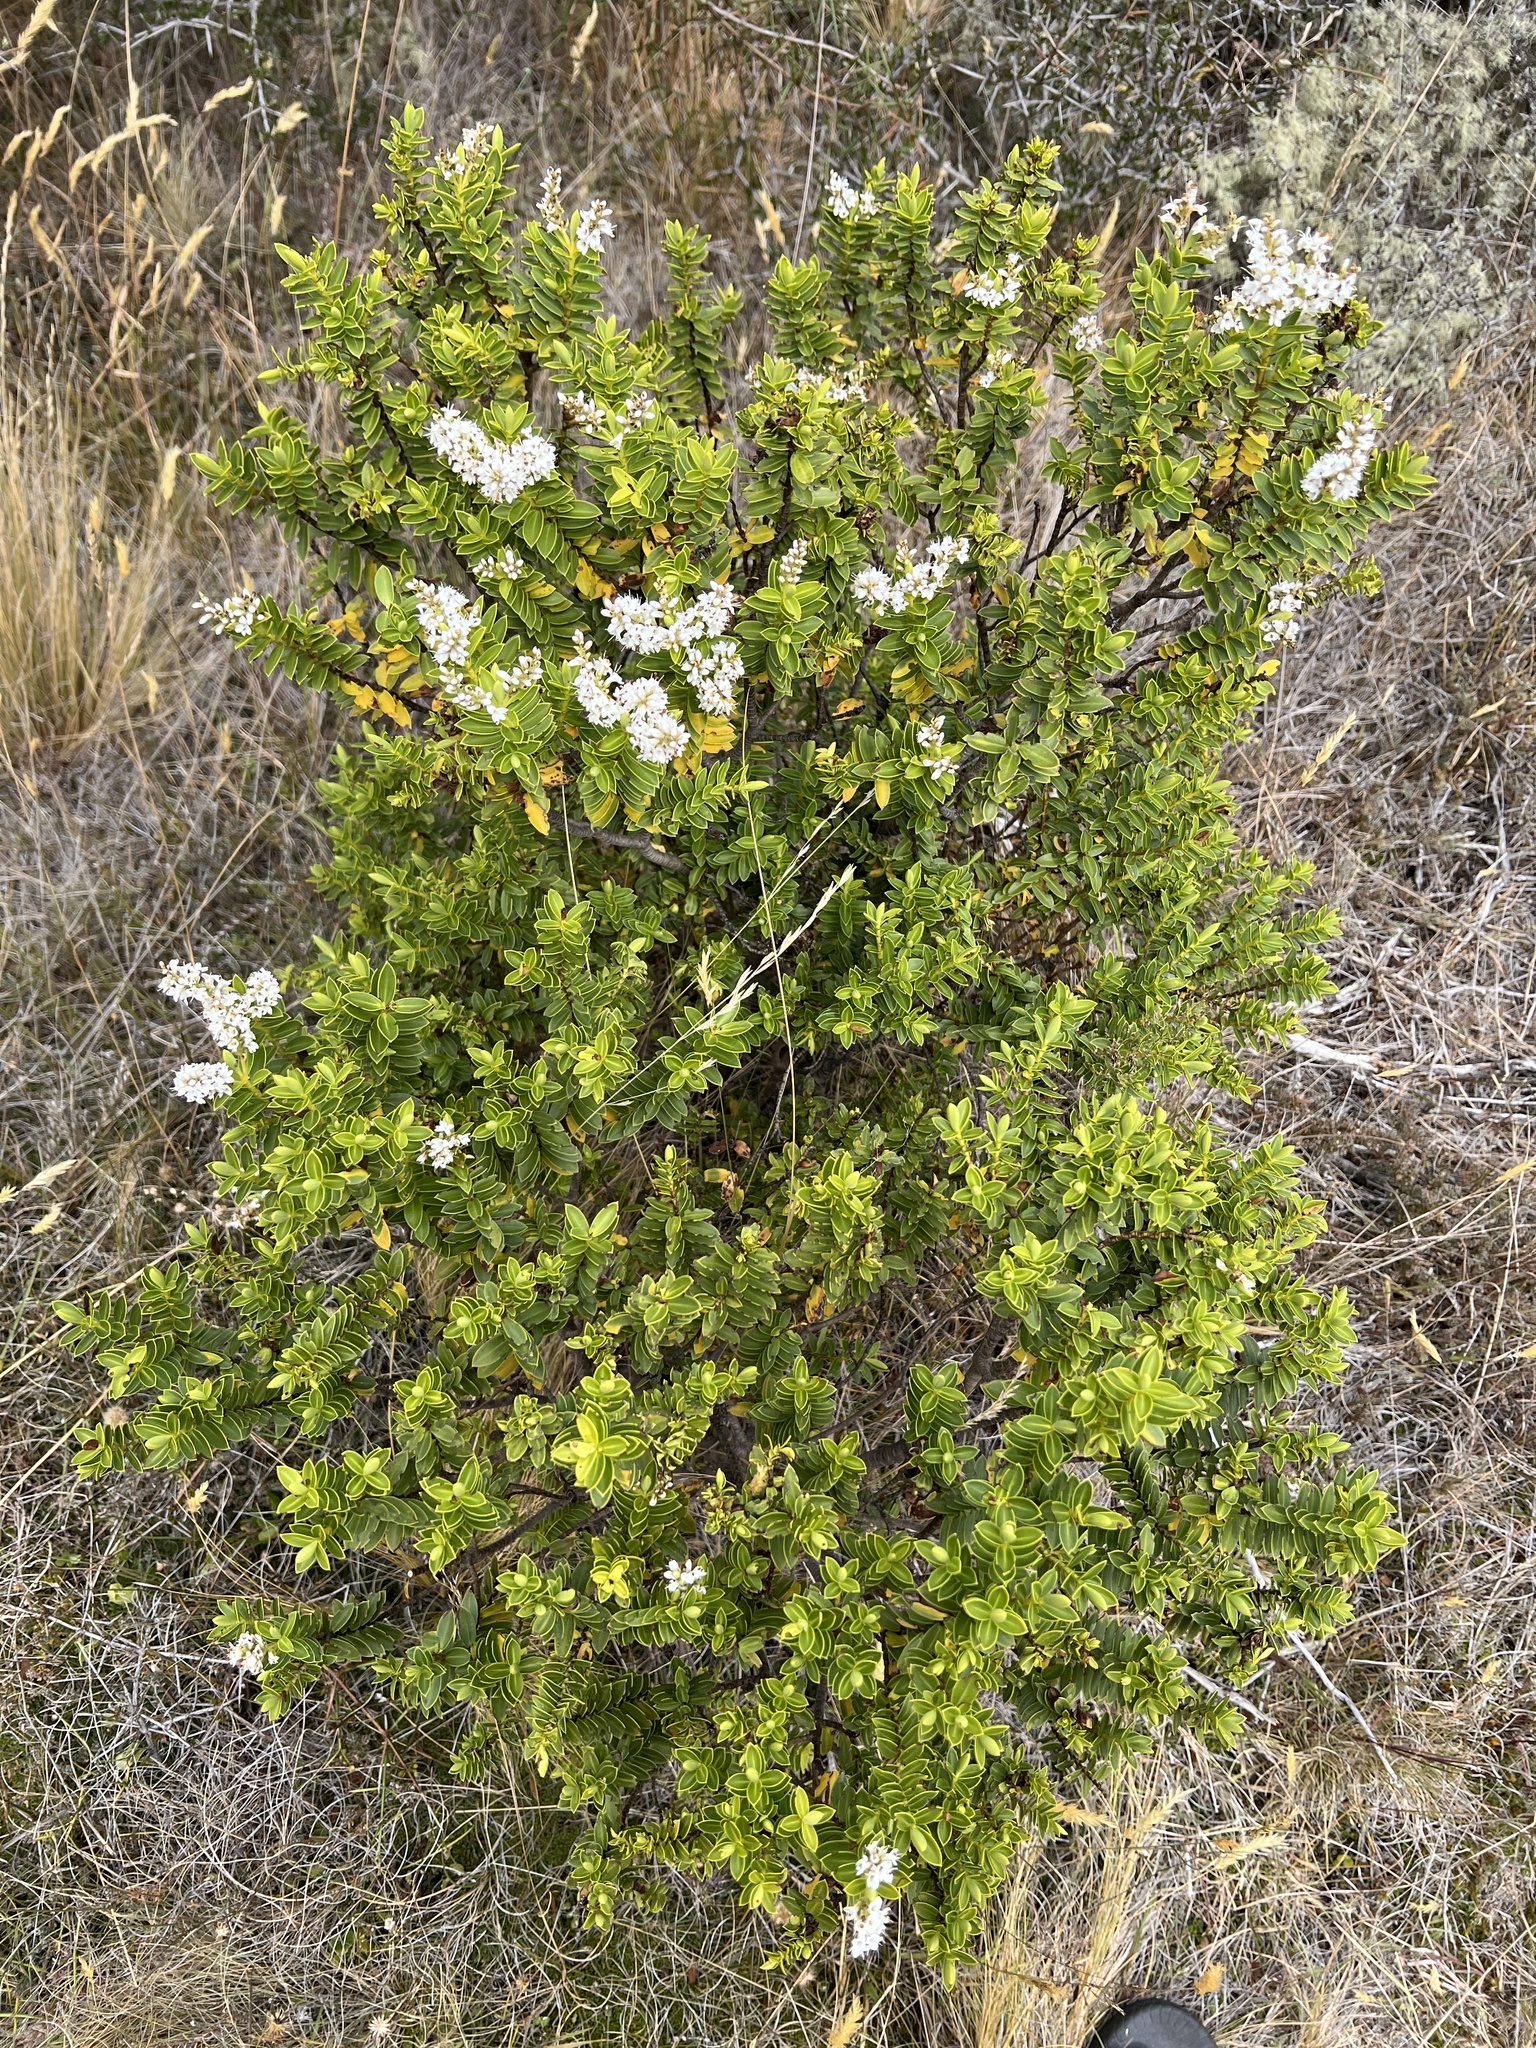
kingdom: Plantae
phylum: Tracheophyta
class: Magnoliopsida
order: Lamiales
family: Plantaginaceae
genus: Veronica
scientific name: Veronica brachysiphon
